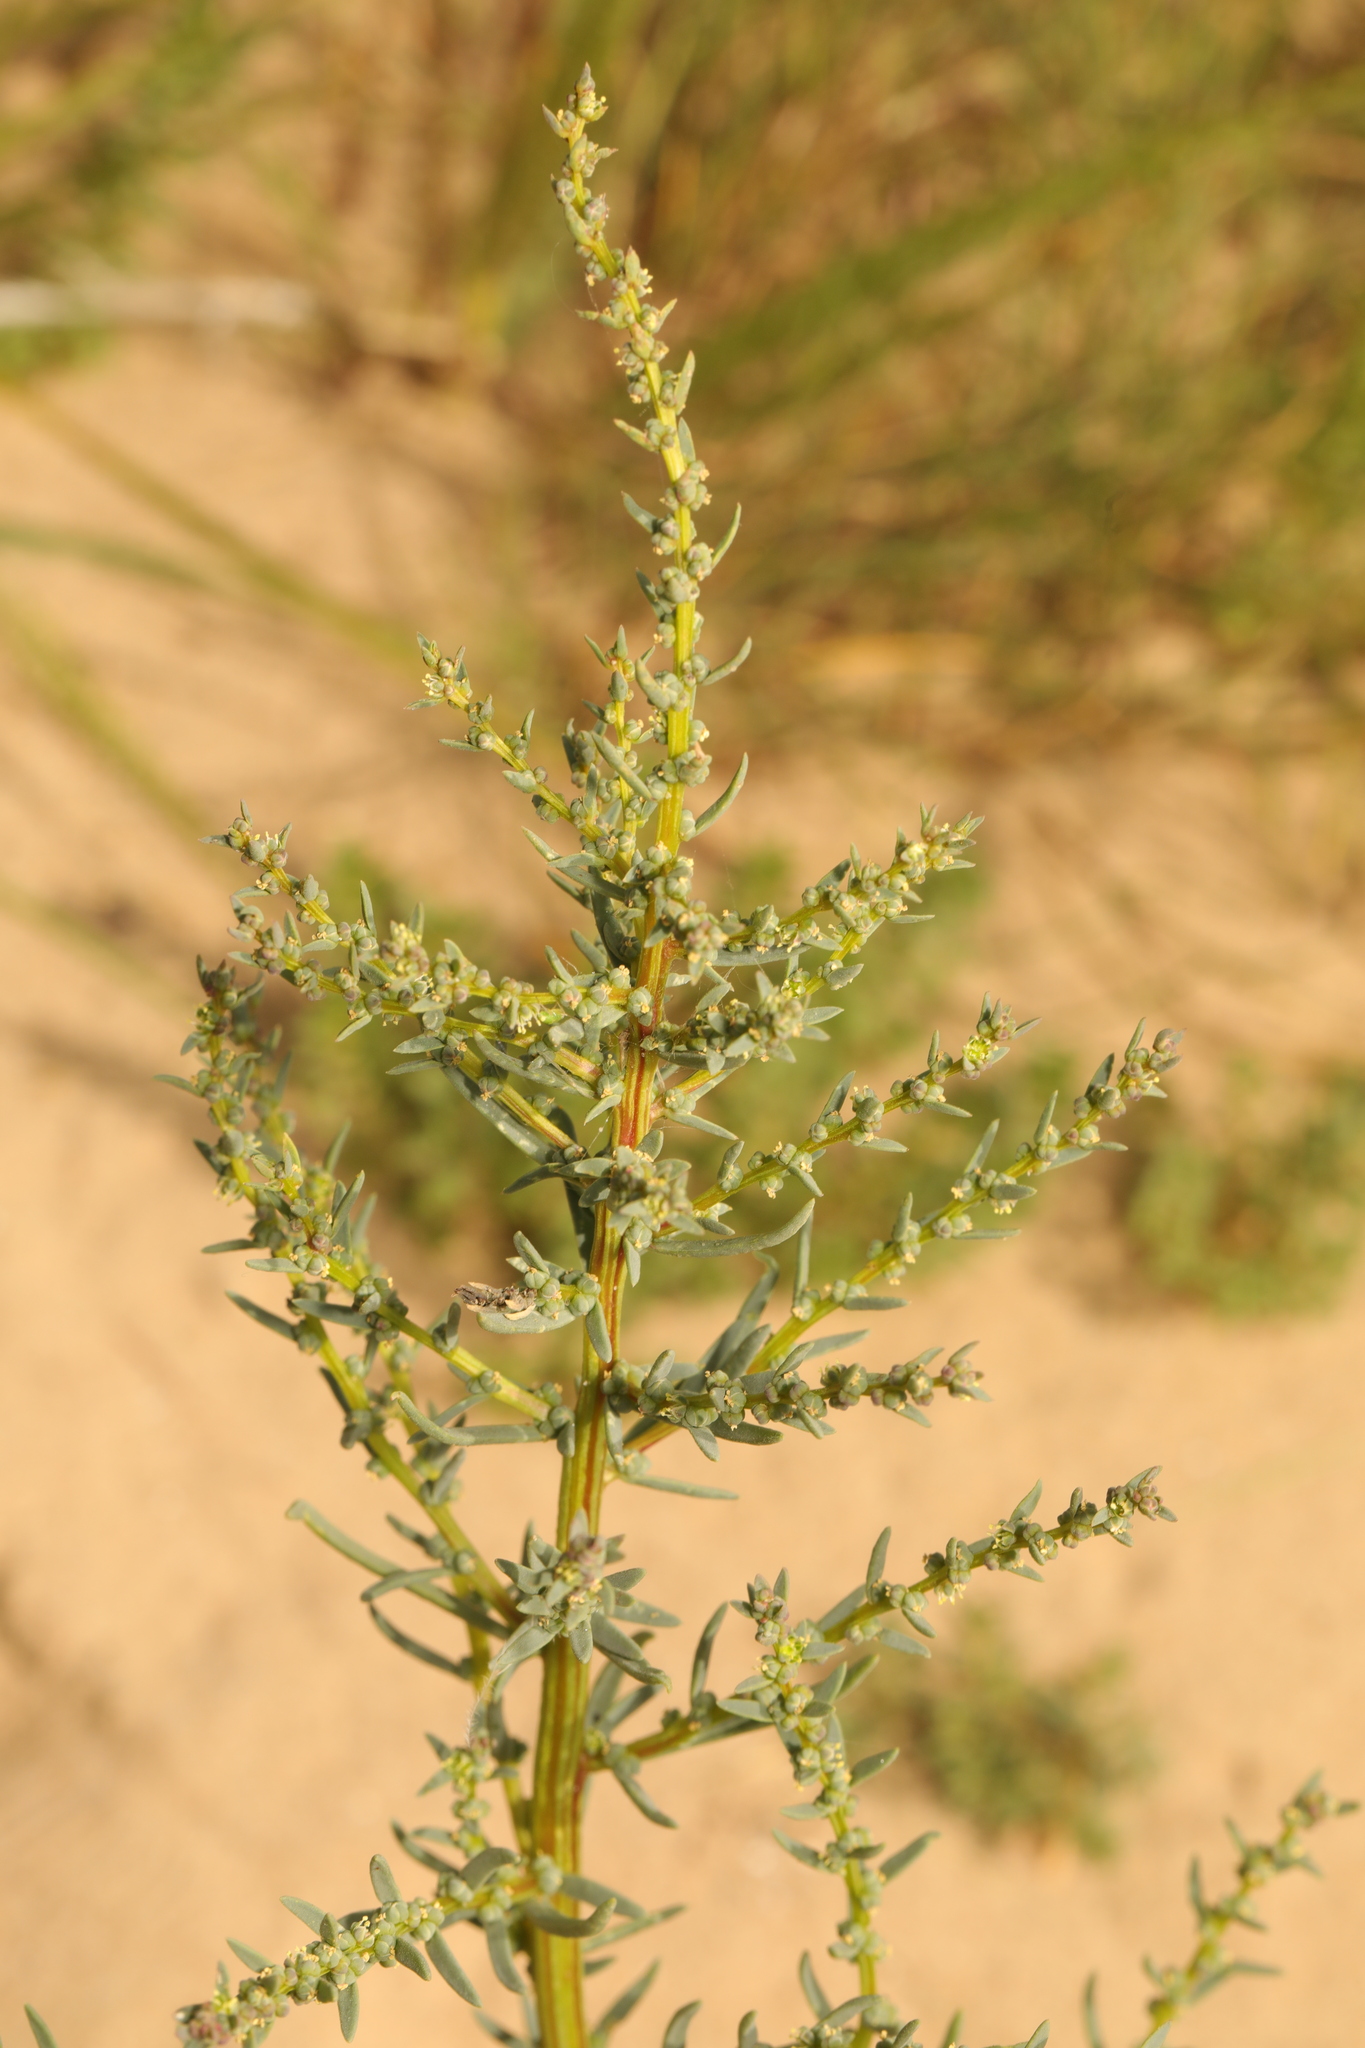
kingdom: Plantae
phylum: Tracheophyta
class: Magnoliopsida
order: Caryophyllales
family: Amaranthaceae
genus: Suaeda
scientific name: Suaeda maritima
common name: Annual sea-blite
